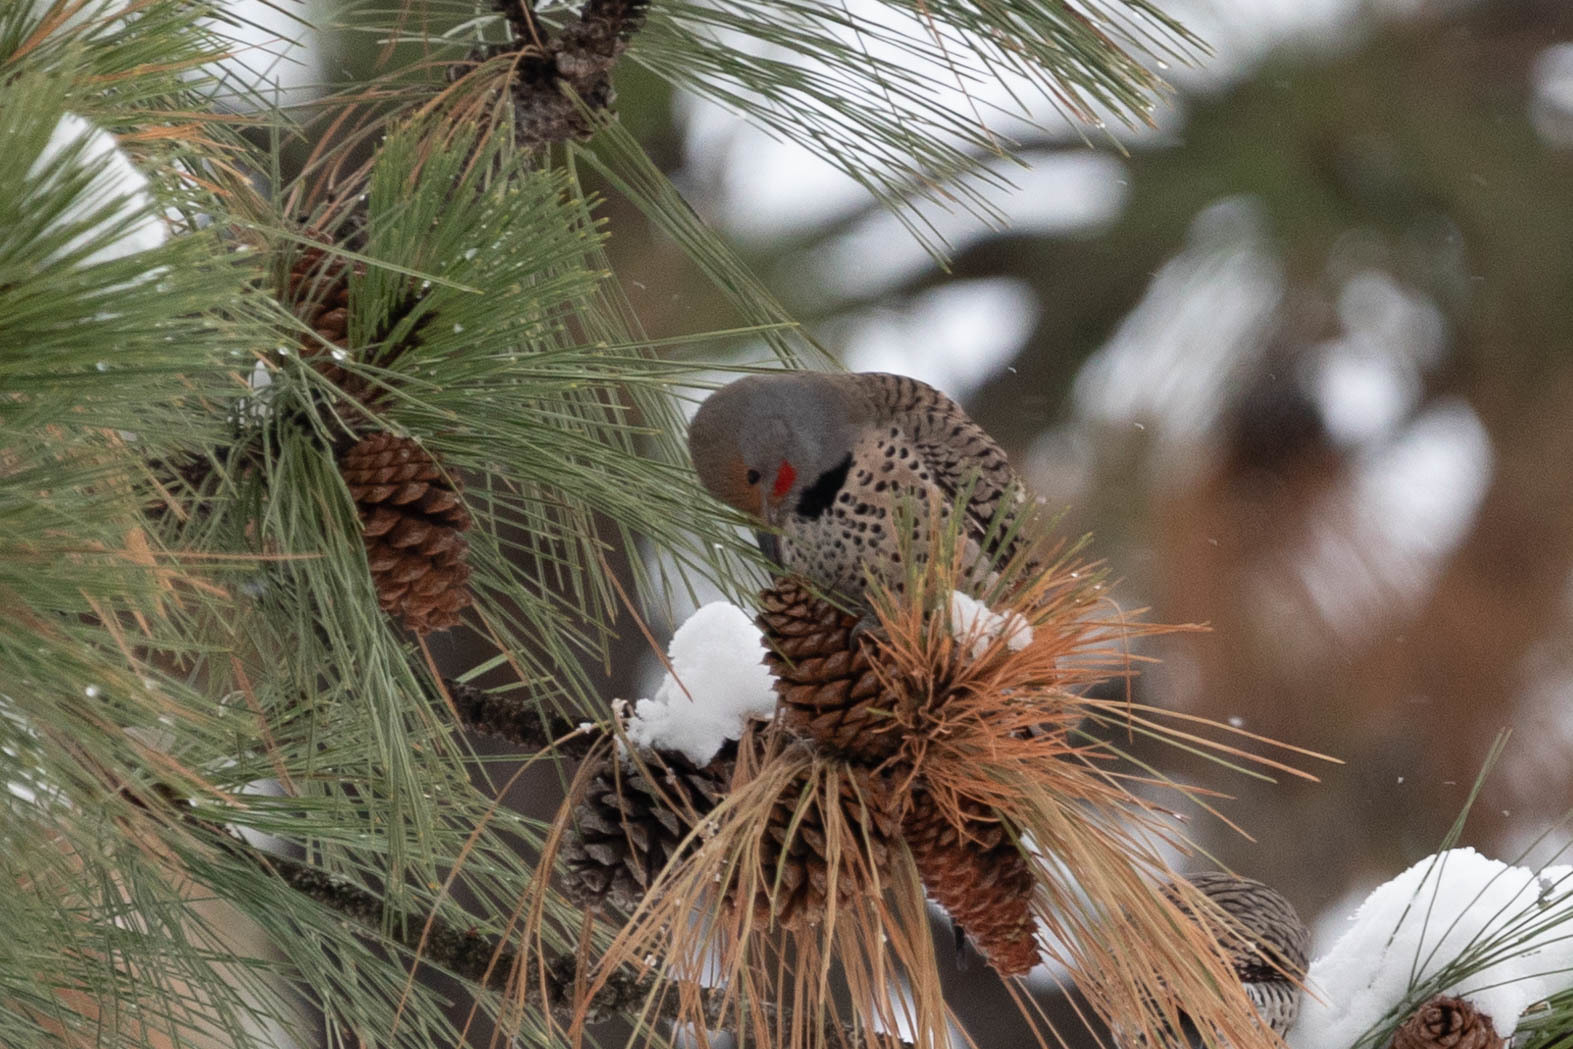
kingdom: Animalia
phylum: Chordata
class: Aves
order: Piciformes
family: Picidae
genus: Colaptes
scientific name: Colaptes auratus
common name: Northern flicker
